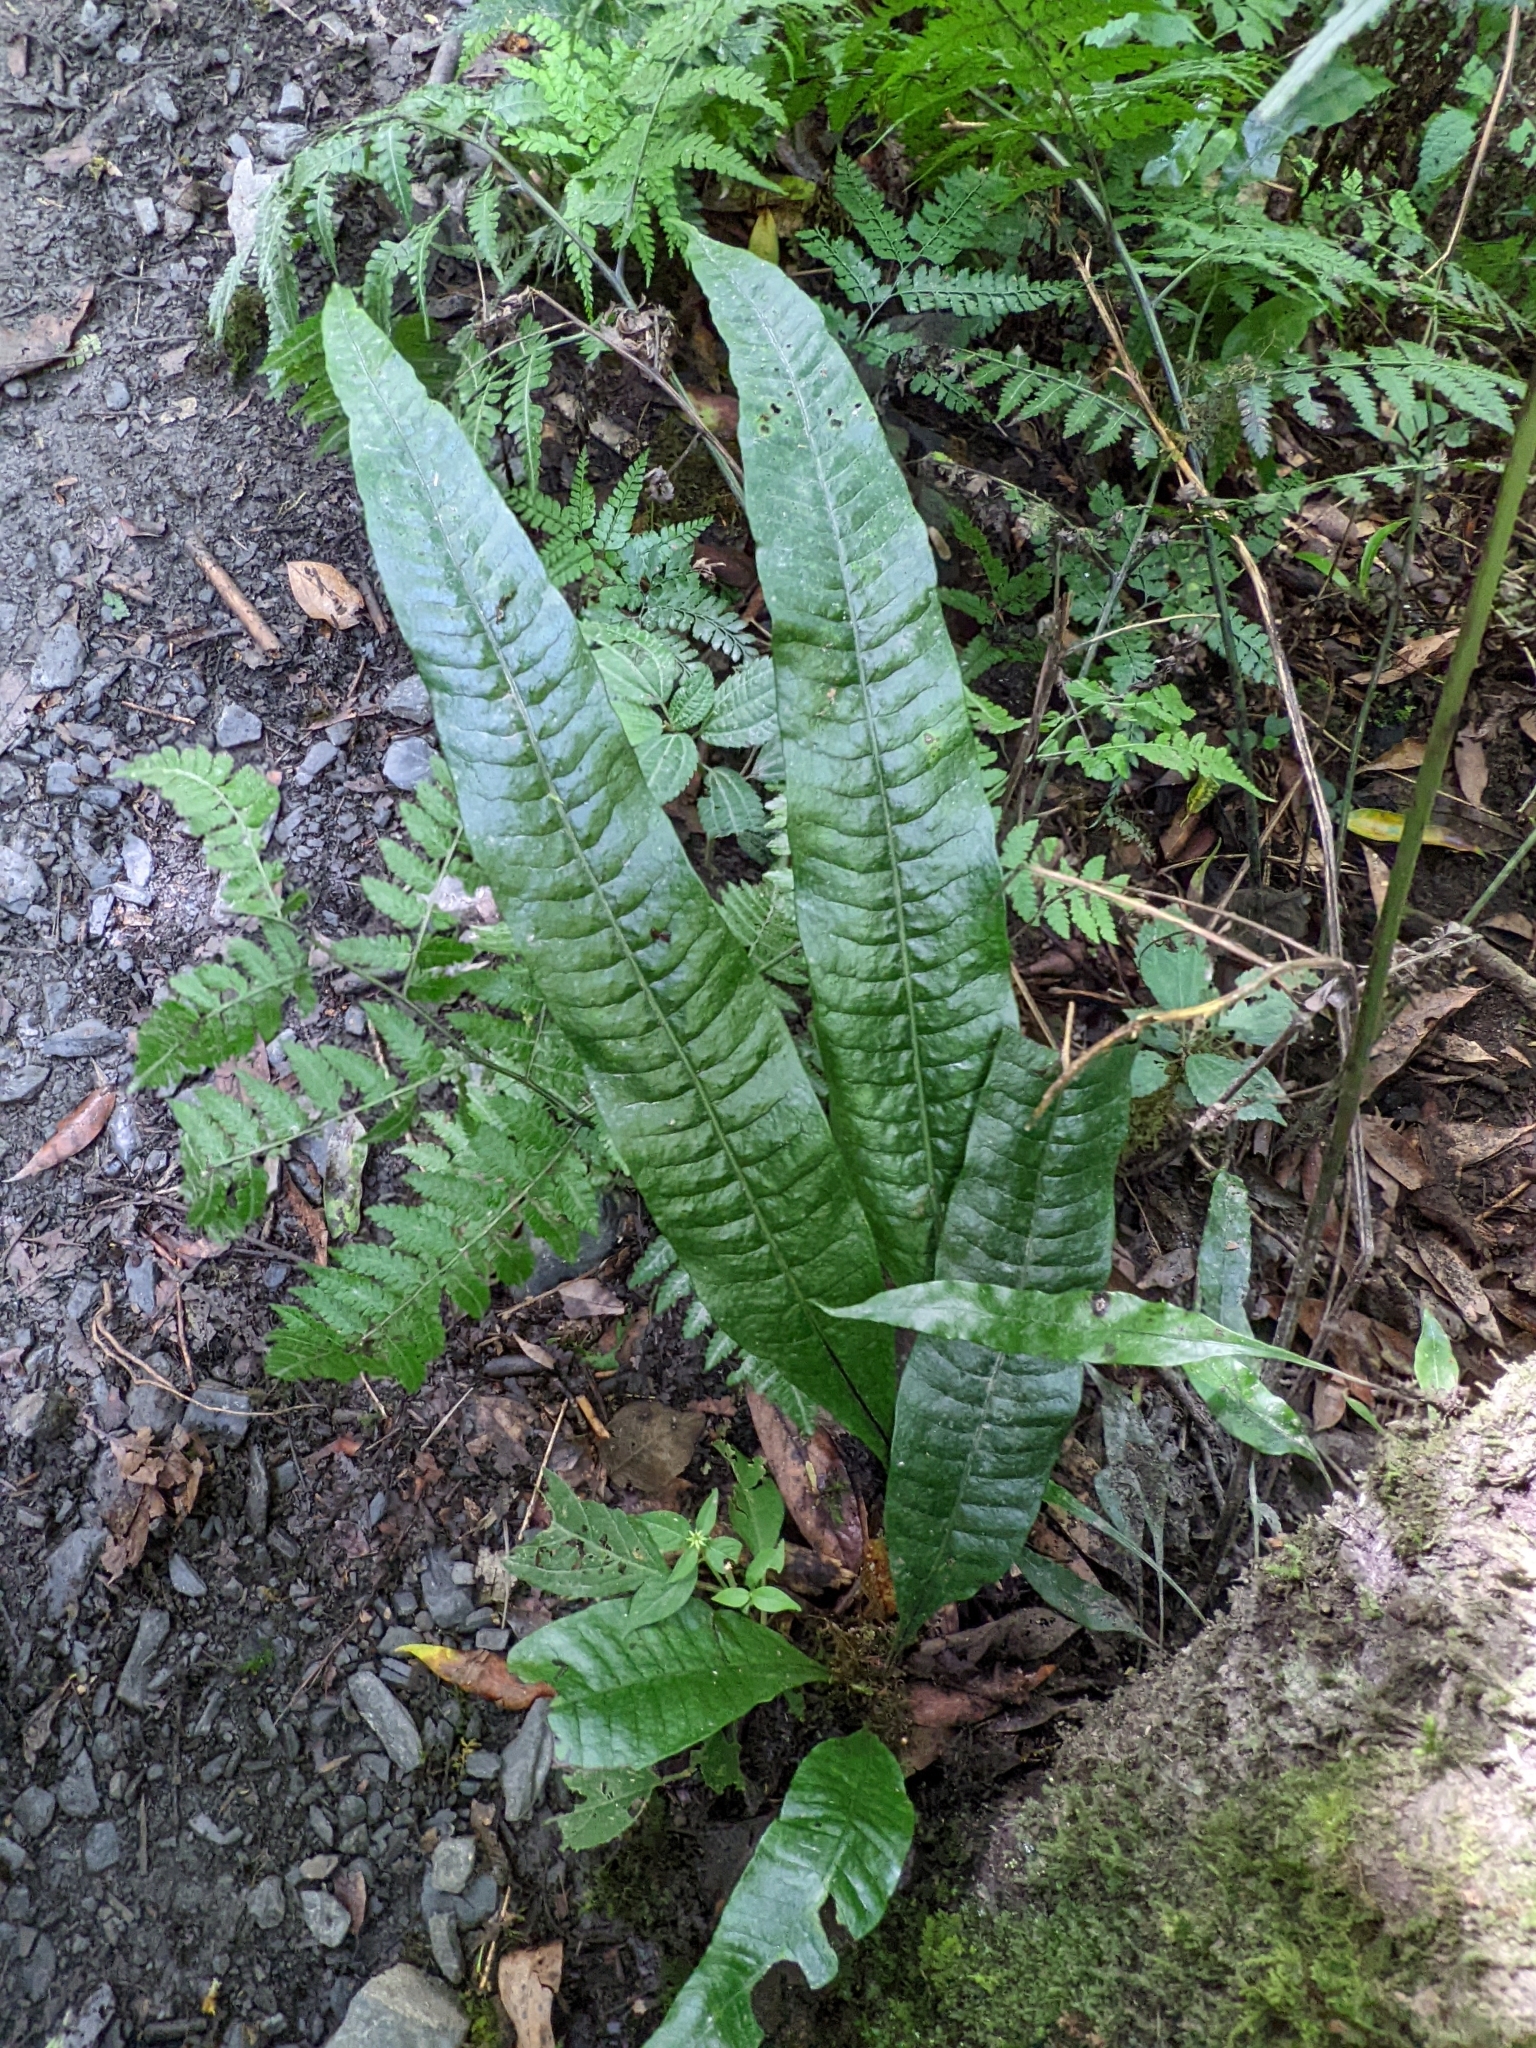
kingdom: Plantae
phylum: Tracheophyta
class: Polypodiopsida
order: Polypodiales
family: Polypodiaceae
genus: Lepisorus
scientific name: Lepisorus ensatus
